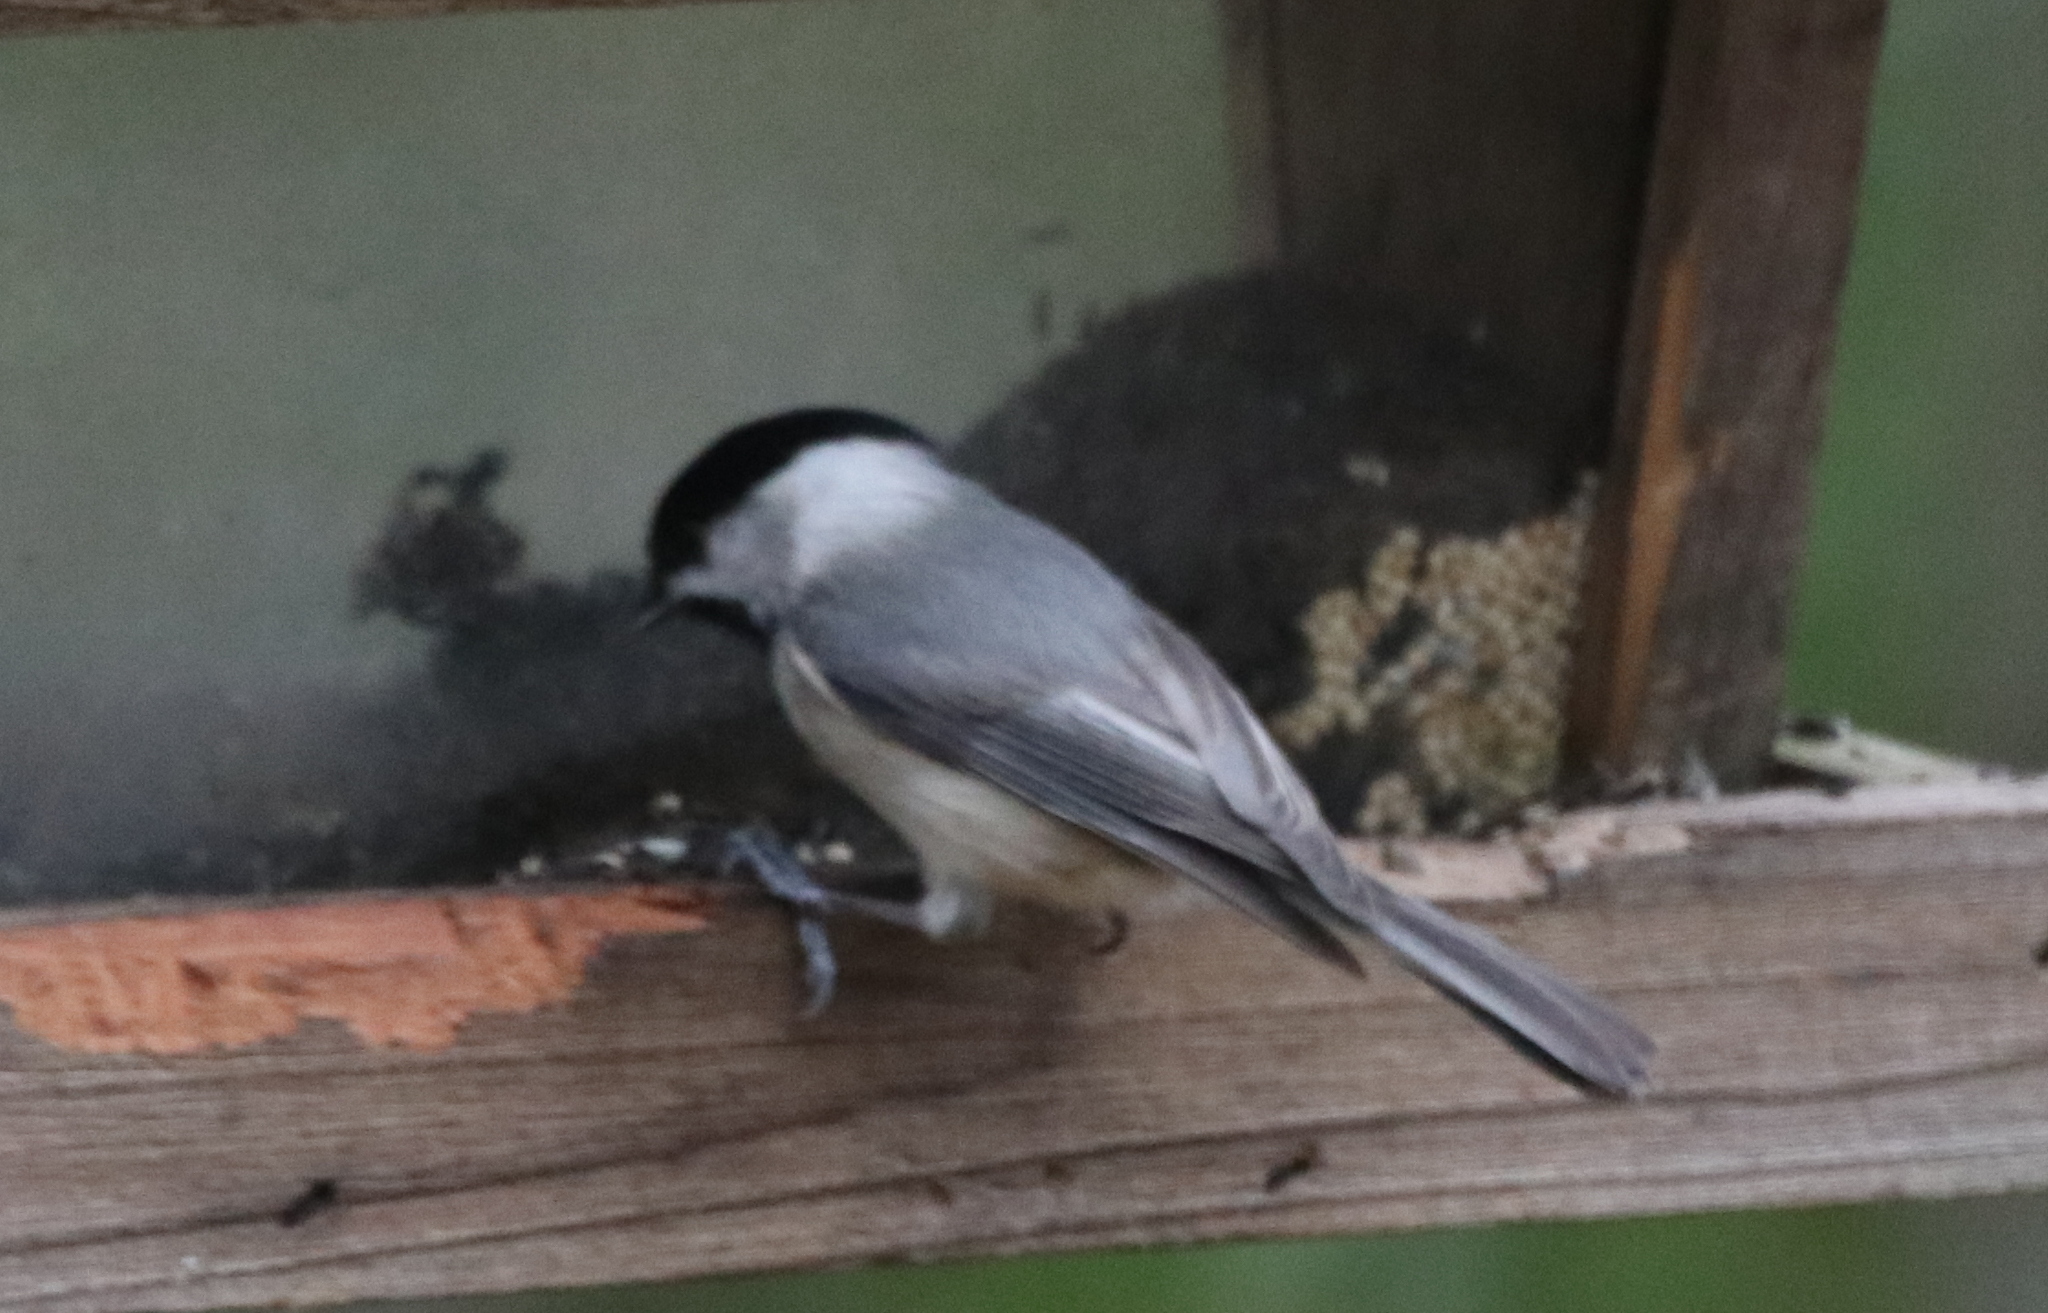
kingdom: Animalia
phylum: Chordata
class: Aves
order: Passeriformes
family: Paridae
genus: Poecile
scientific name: Poecile carolinensis
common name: Carolina chickadee
